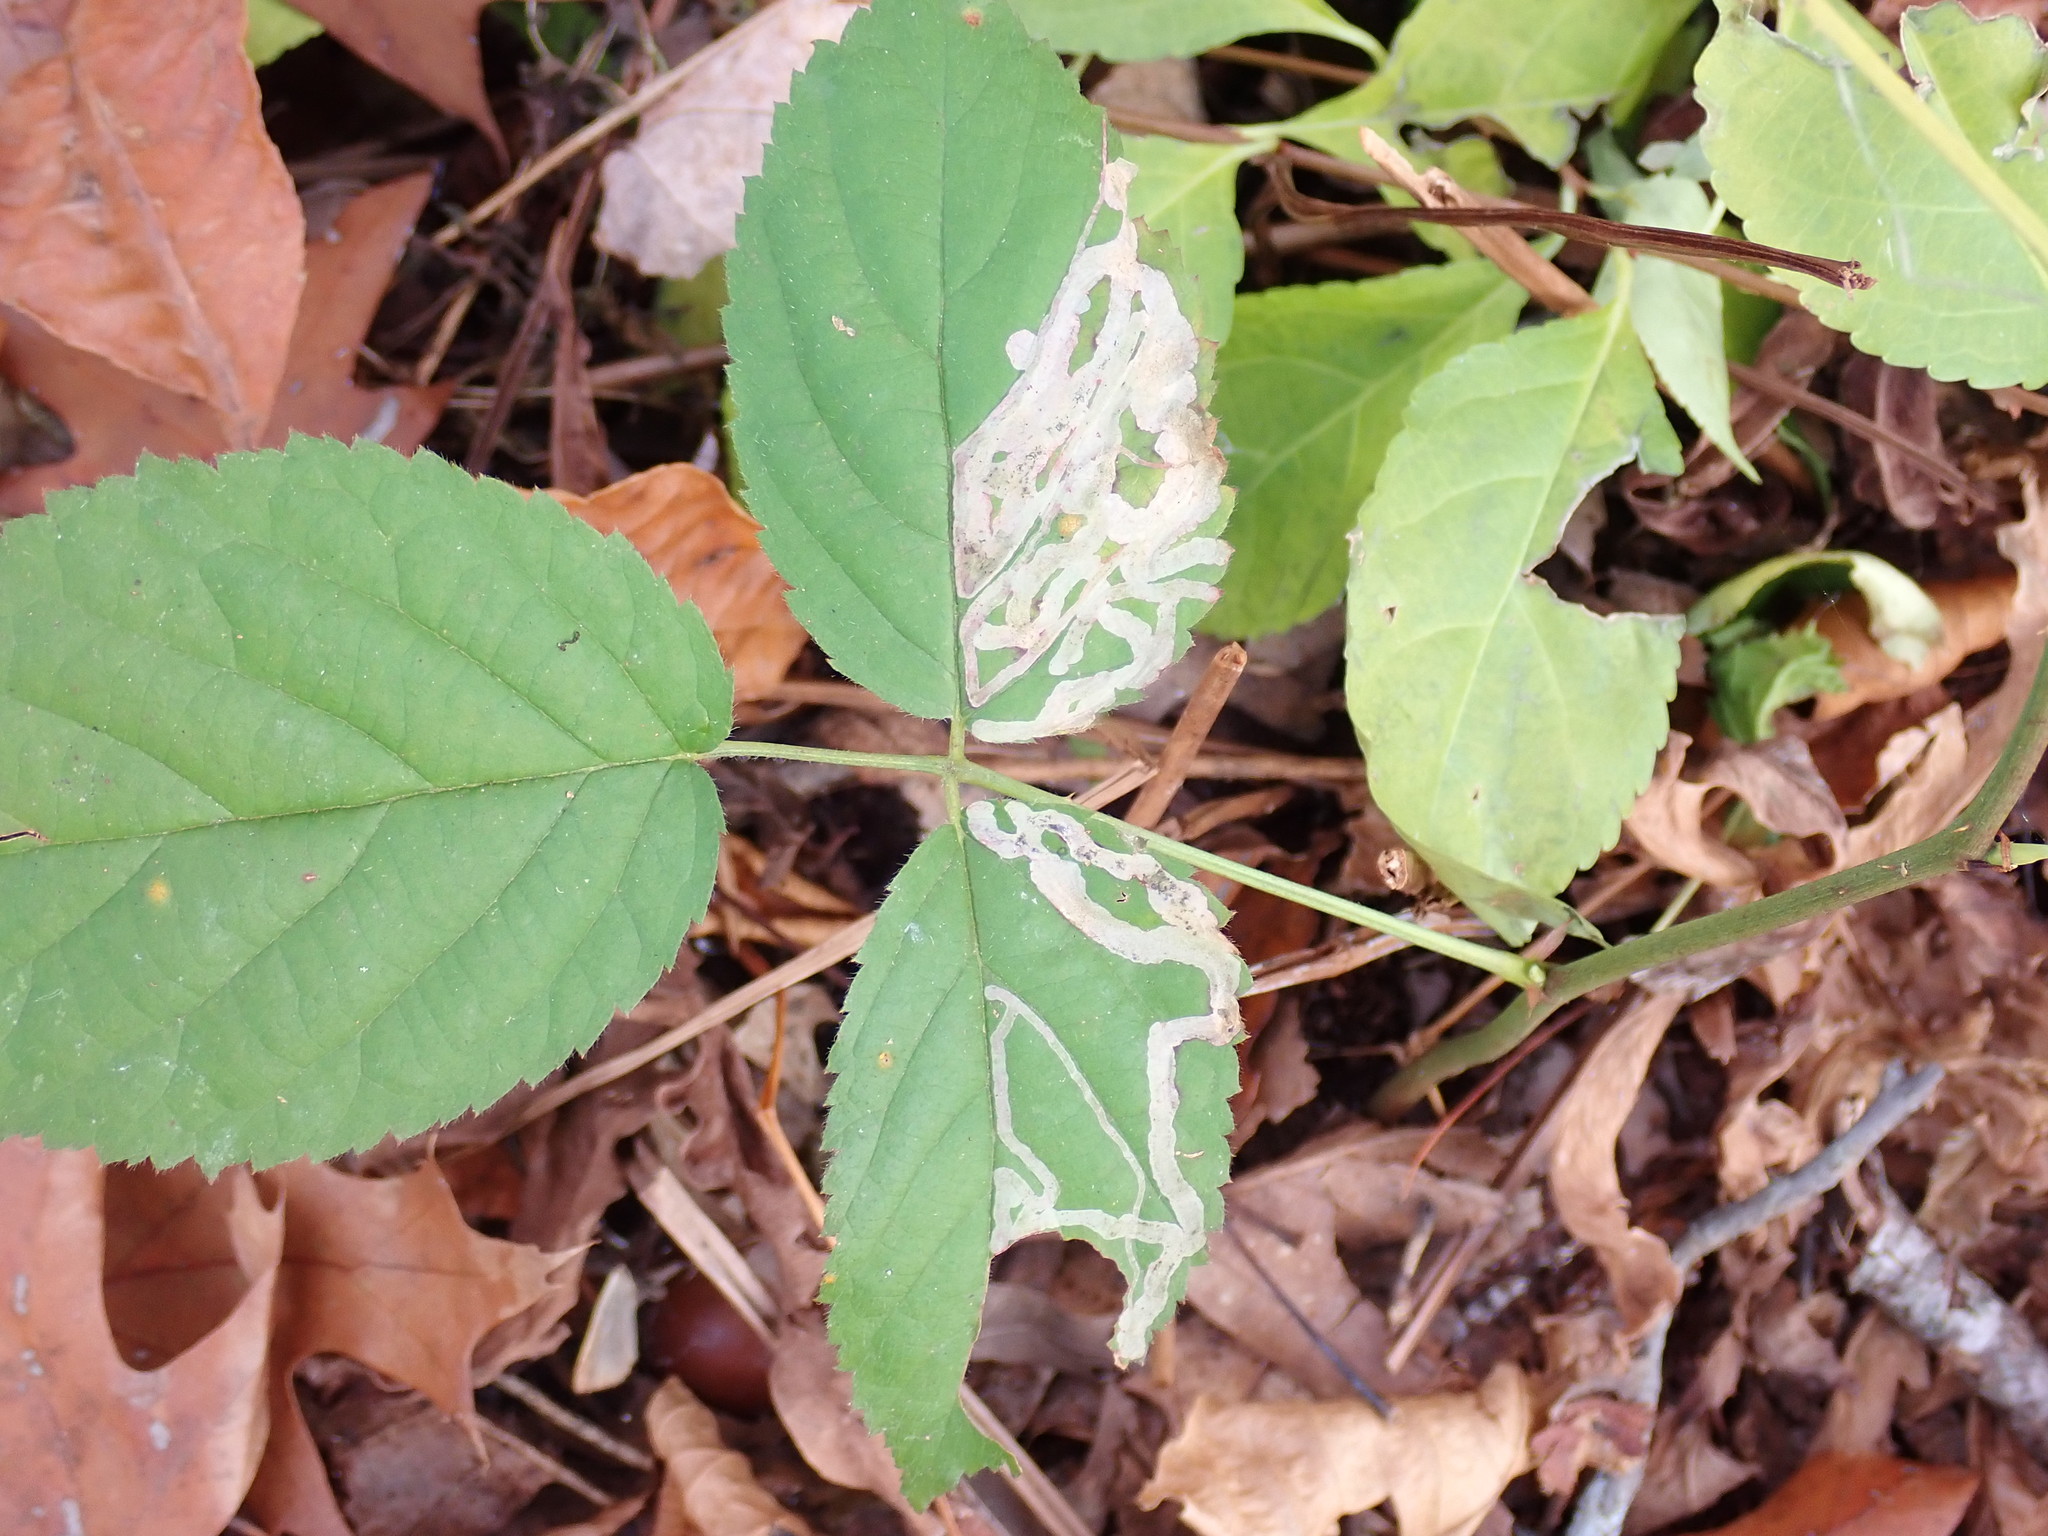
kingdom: Animalia
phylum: Arthropoda
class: Insecta
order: Diptera
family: Agromyzidae
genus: Agromyza
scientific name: Agromyza vockerothi
